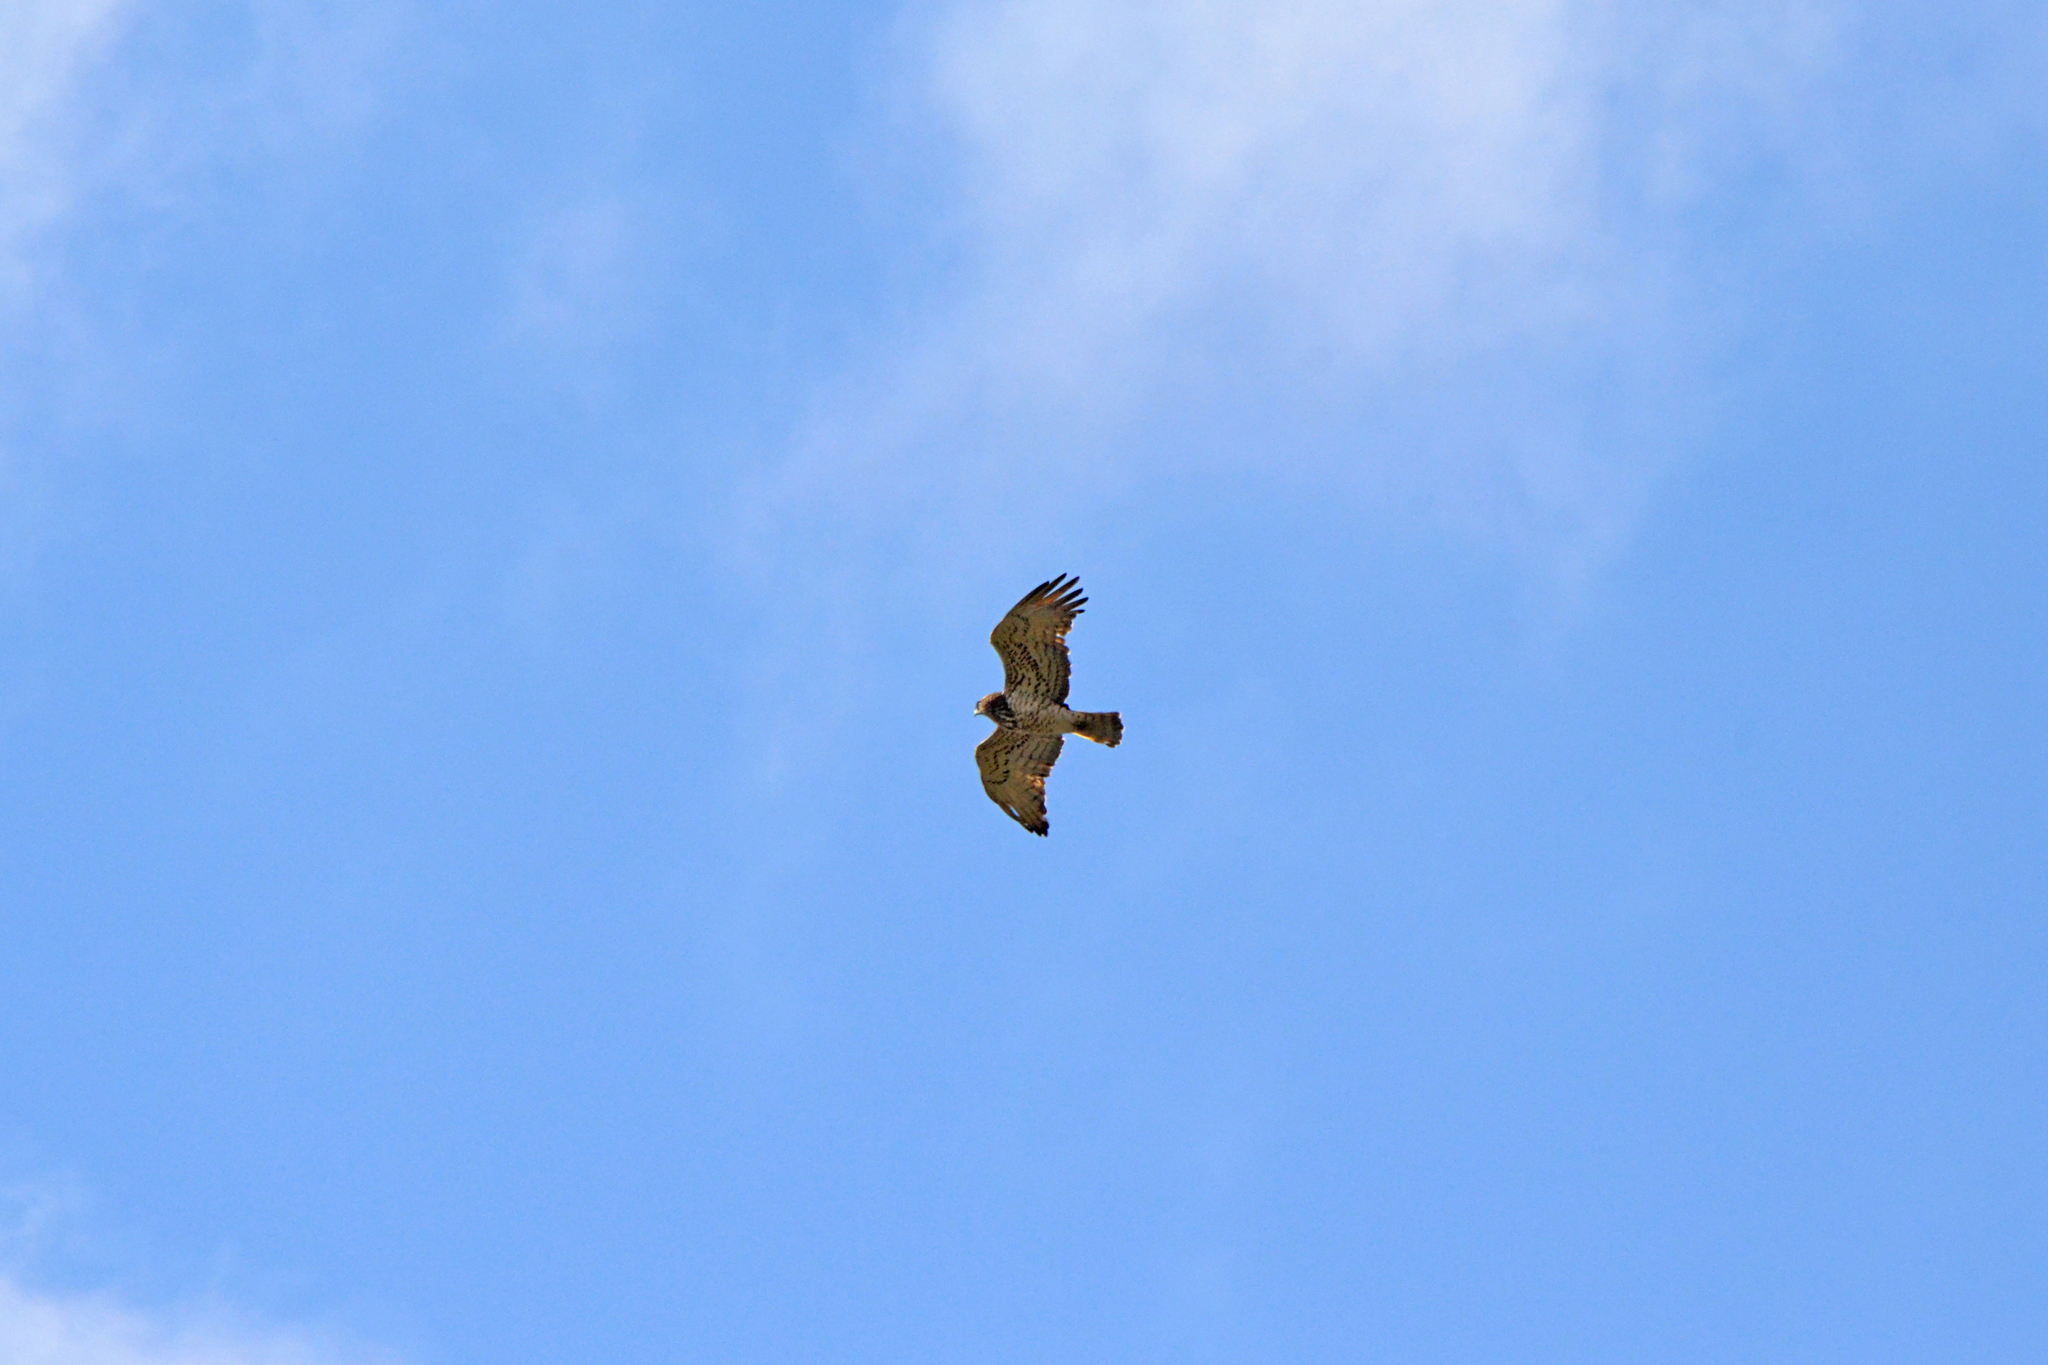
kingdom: Animalia
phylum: Chordata
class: Aves
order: Accipitriformes
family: Accipitridae
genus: Circaetus
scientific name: Circaetus gallicus
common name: Short-toed snake eagle
